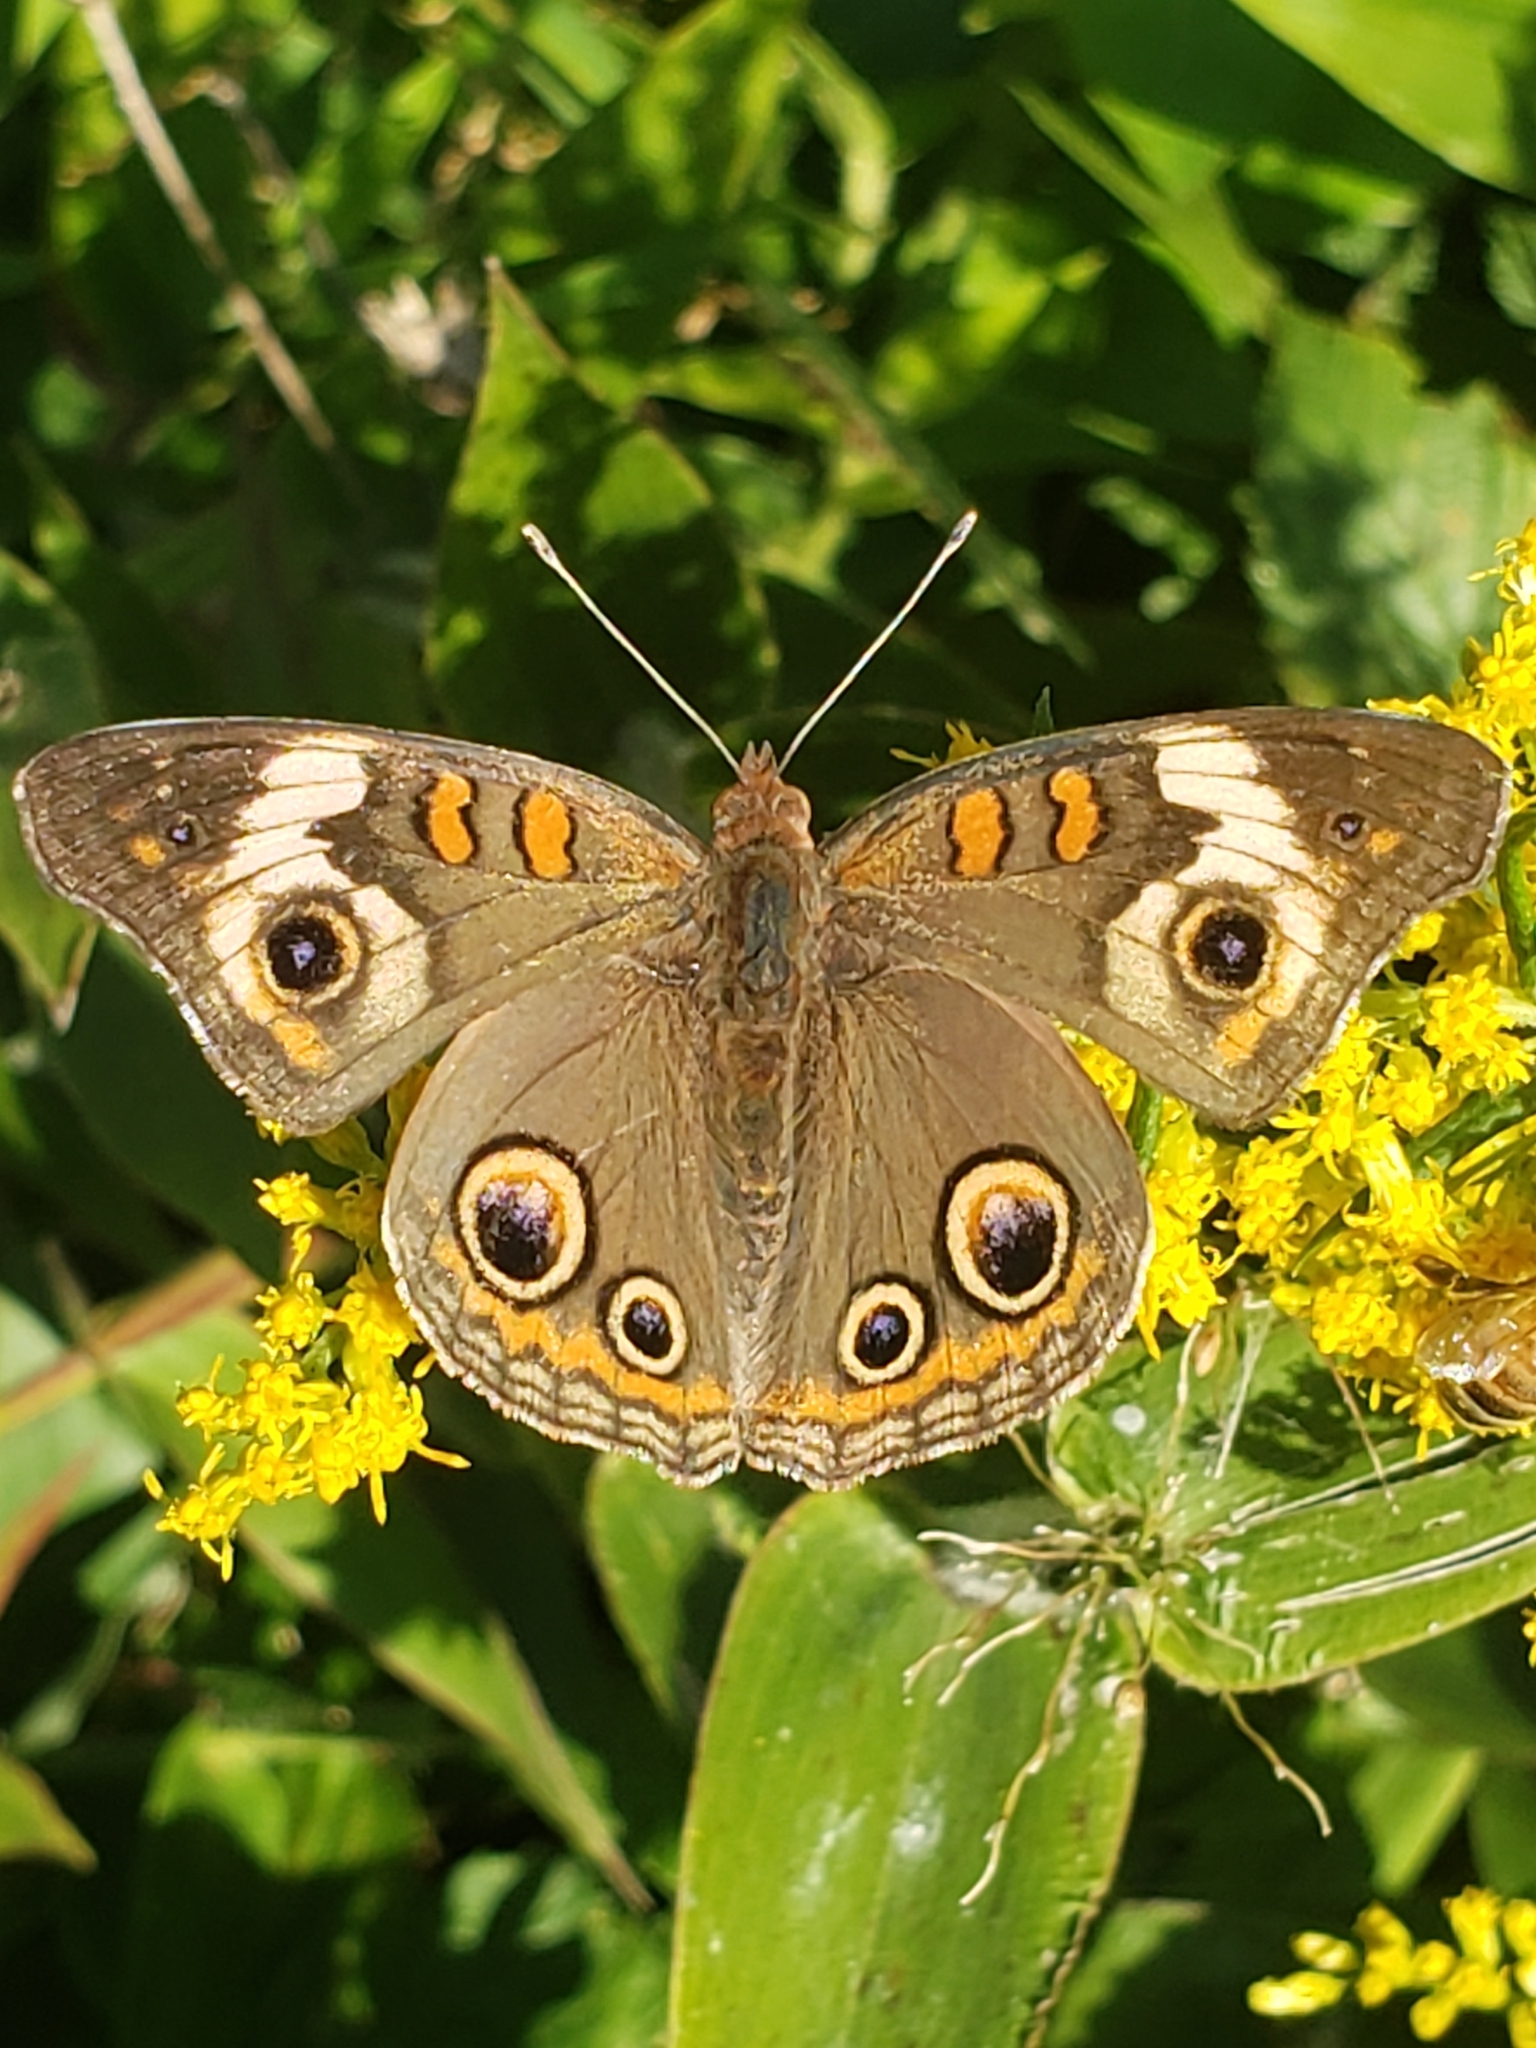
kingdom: Animalia
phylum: Arthropoda
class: Insecta
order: Lepidoptera
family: Nymphalidae
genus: Junonia
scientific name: Junonia coenia
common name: Common buckeye
